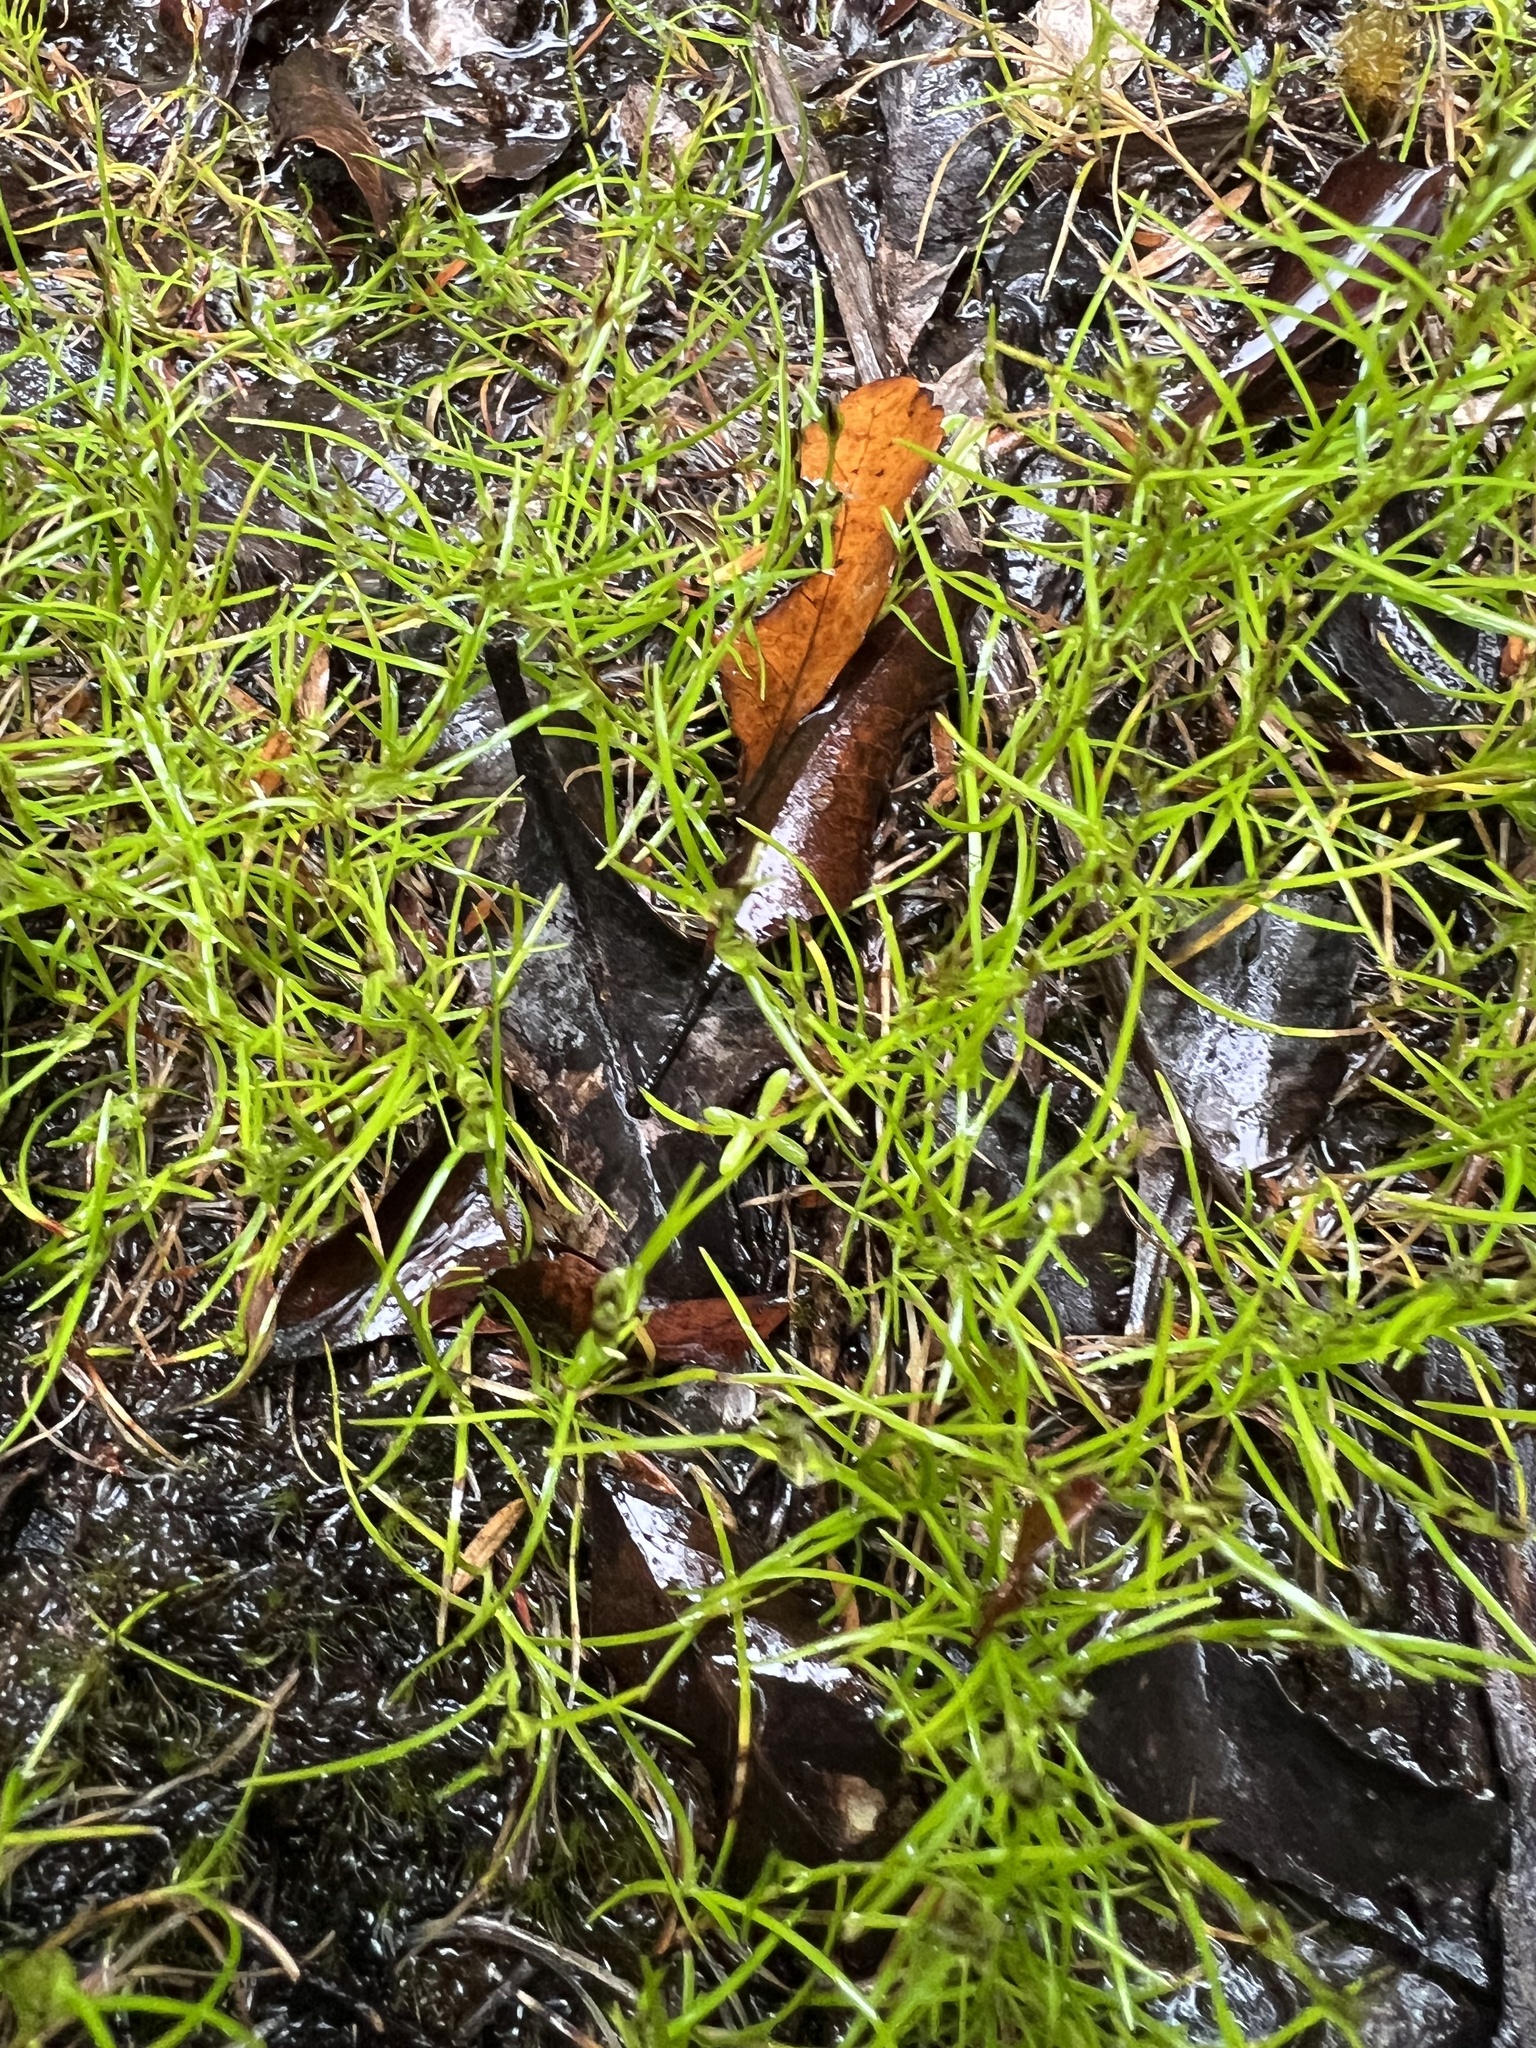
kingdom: Plantae
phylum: Tracheophyta
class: Liliopsida
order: Poales
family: Cyperaceae
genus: Schoenus
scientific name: Schoenus maschalinus
